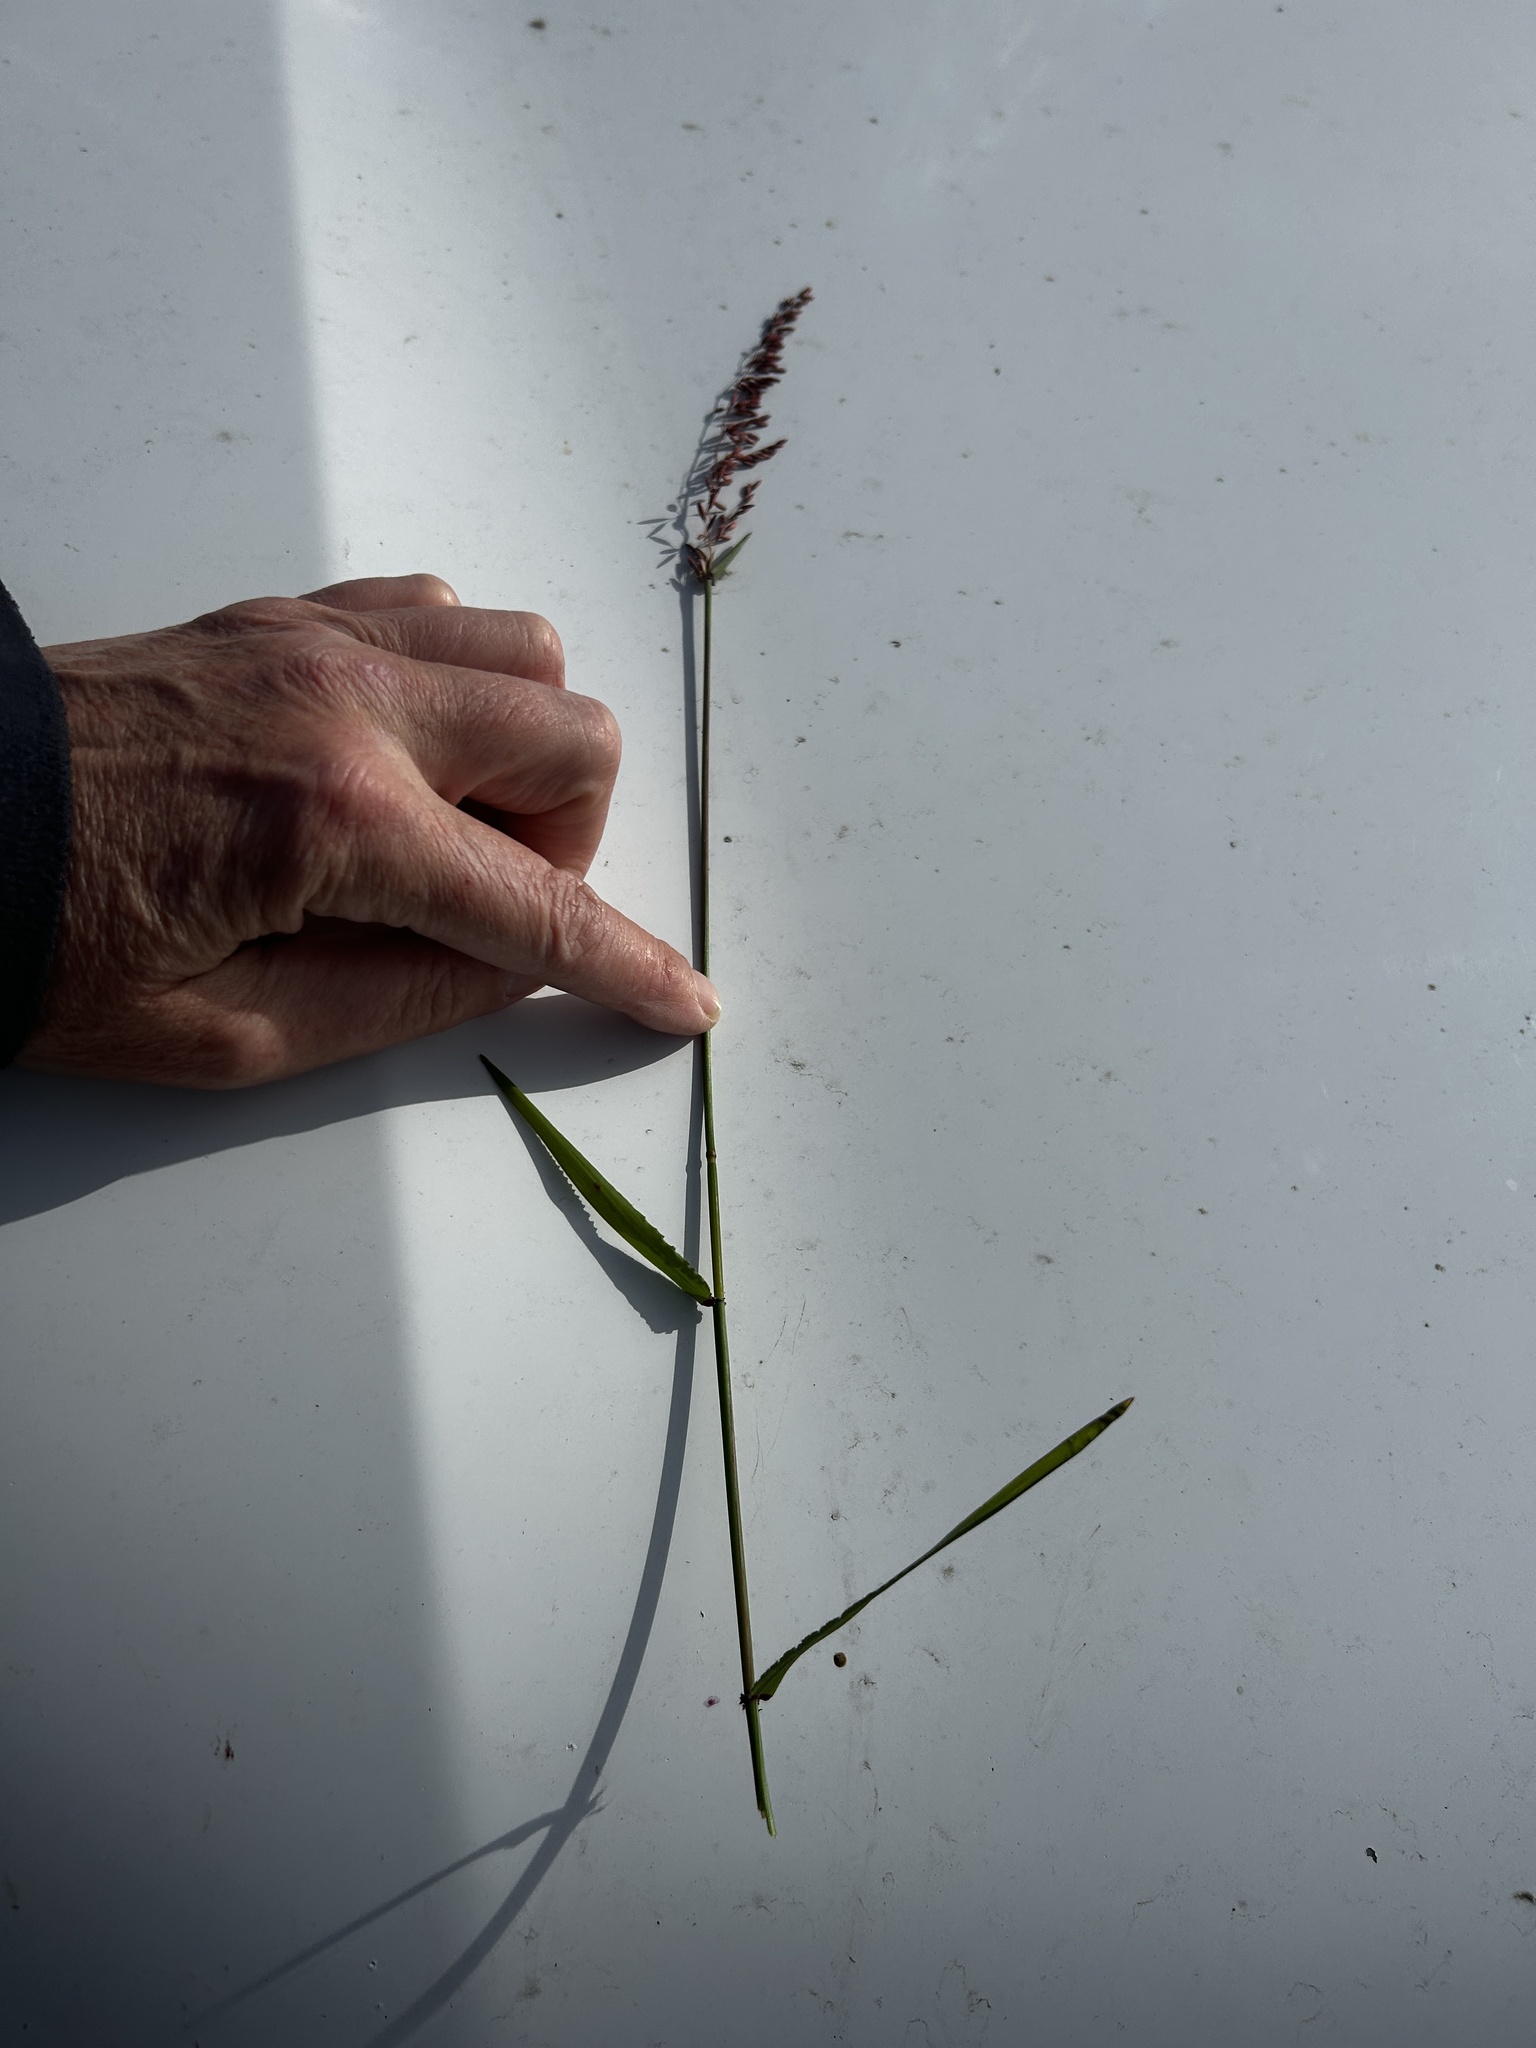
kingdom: Plantae
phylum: Tracheophyta
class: Liliopsida
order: Poales
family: Poaceae
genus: Ehrharta
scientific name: Ehrharta calycina
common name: Perennial veldtgrass
